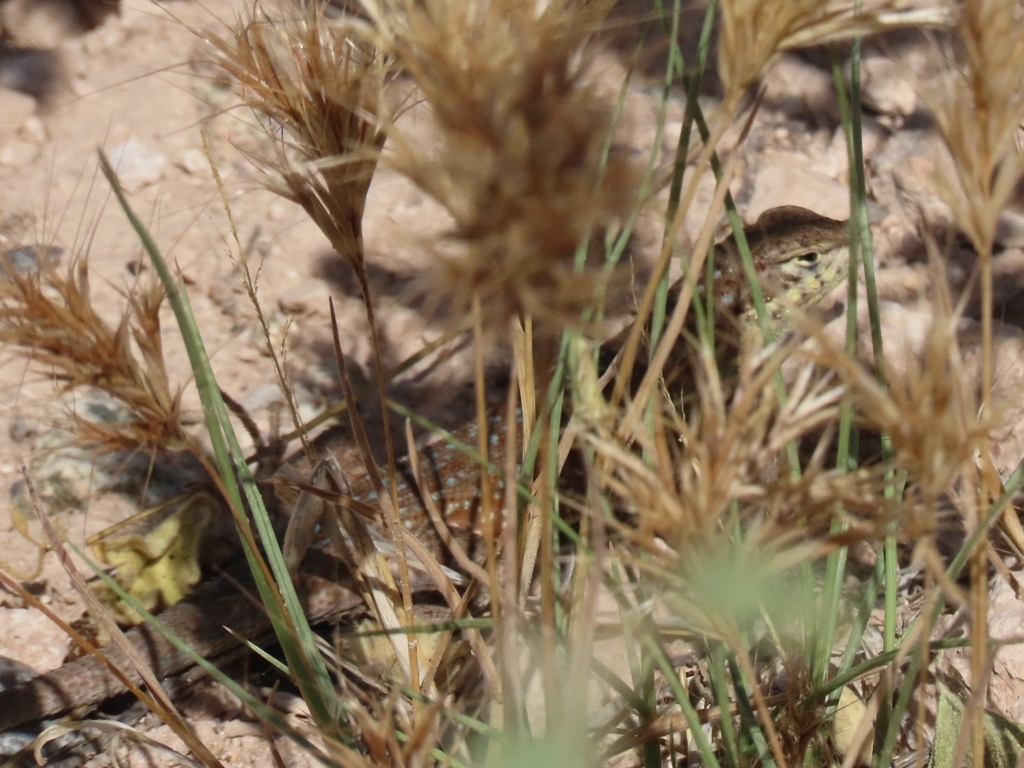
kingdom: Animalia
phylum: Chordata
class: Squamata
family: Phrynosomatidae
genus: Uta
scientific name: Uta stansburiana
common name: Side-blotched lizard
